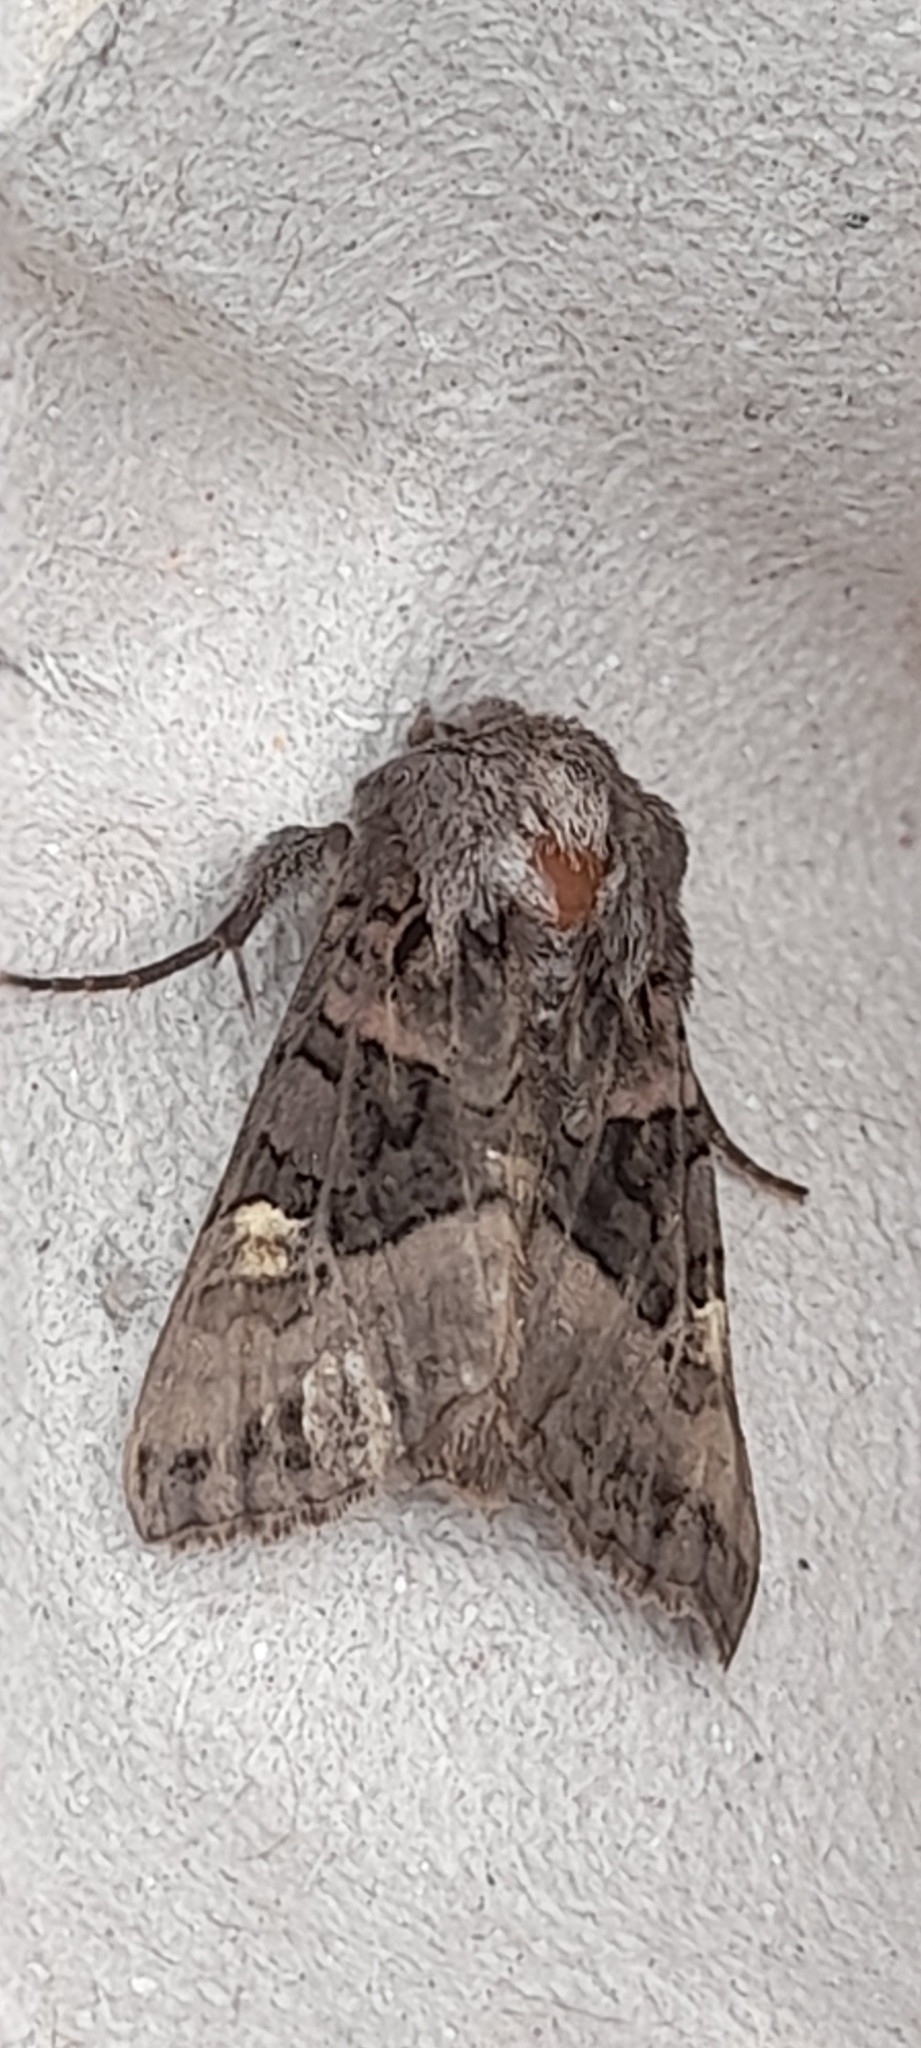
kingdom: Animalia
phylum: Arthropoda
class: Insecta
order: Lepidoptera
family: Noctuidae
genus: Euplexia
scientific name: Euplexia lucipara
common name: Small angle shades
